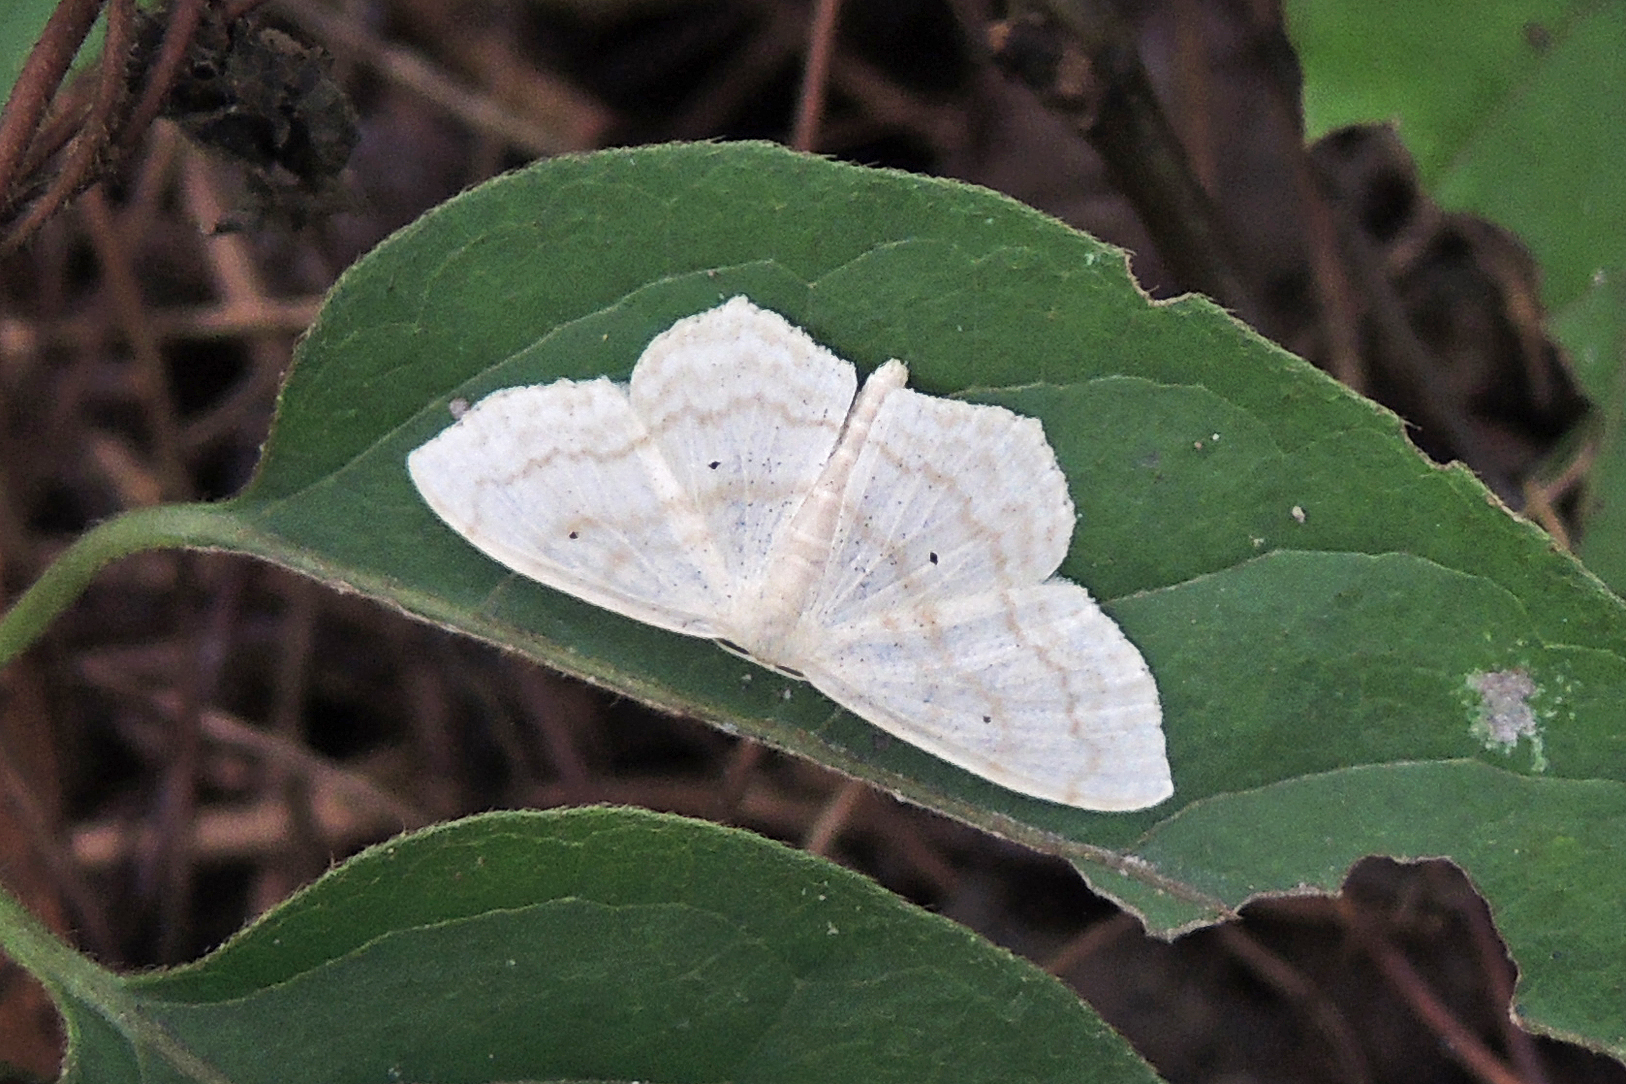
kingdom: Animalia
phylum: Arthropoda
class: Insecta
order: Lepidoptera
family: Geometridae
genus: Scopula
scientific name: Scopula limboundata
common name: Large lace border
